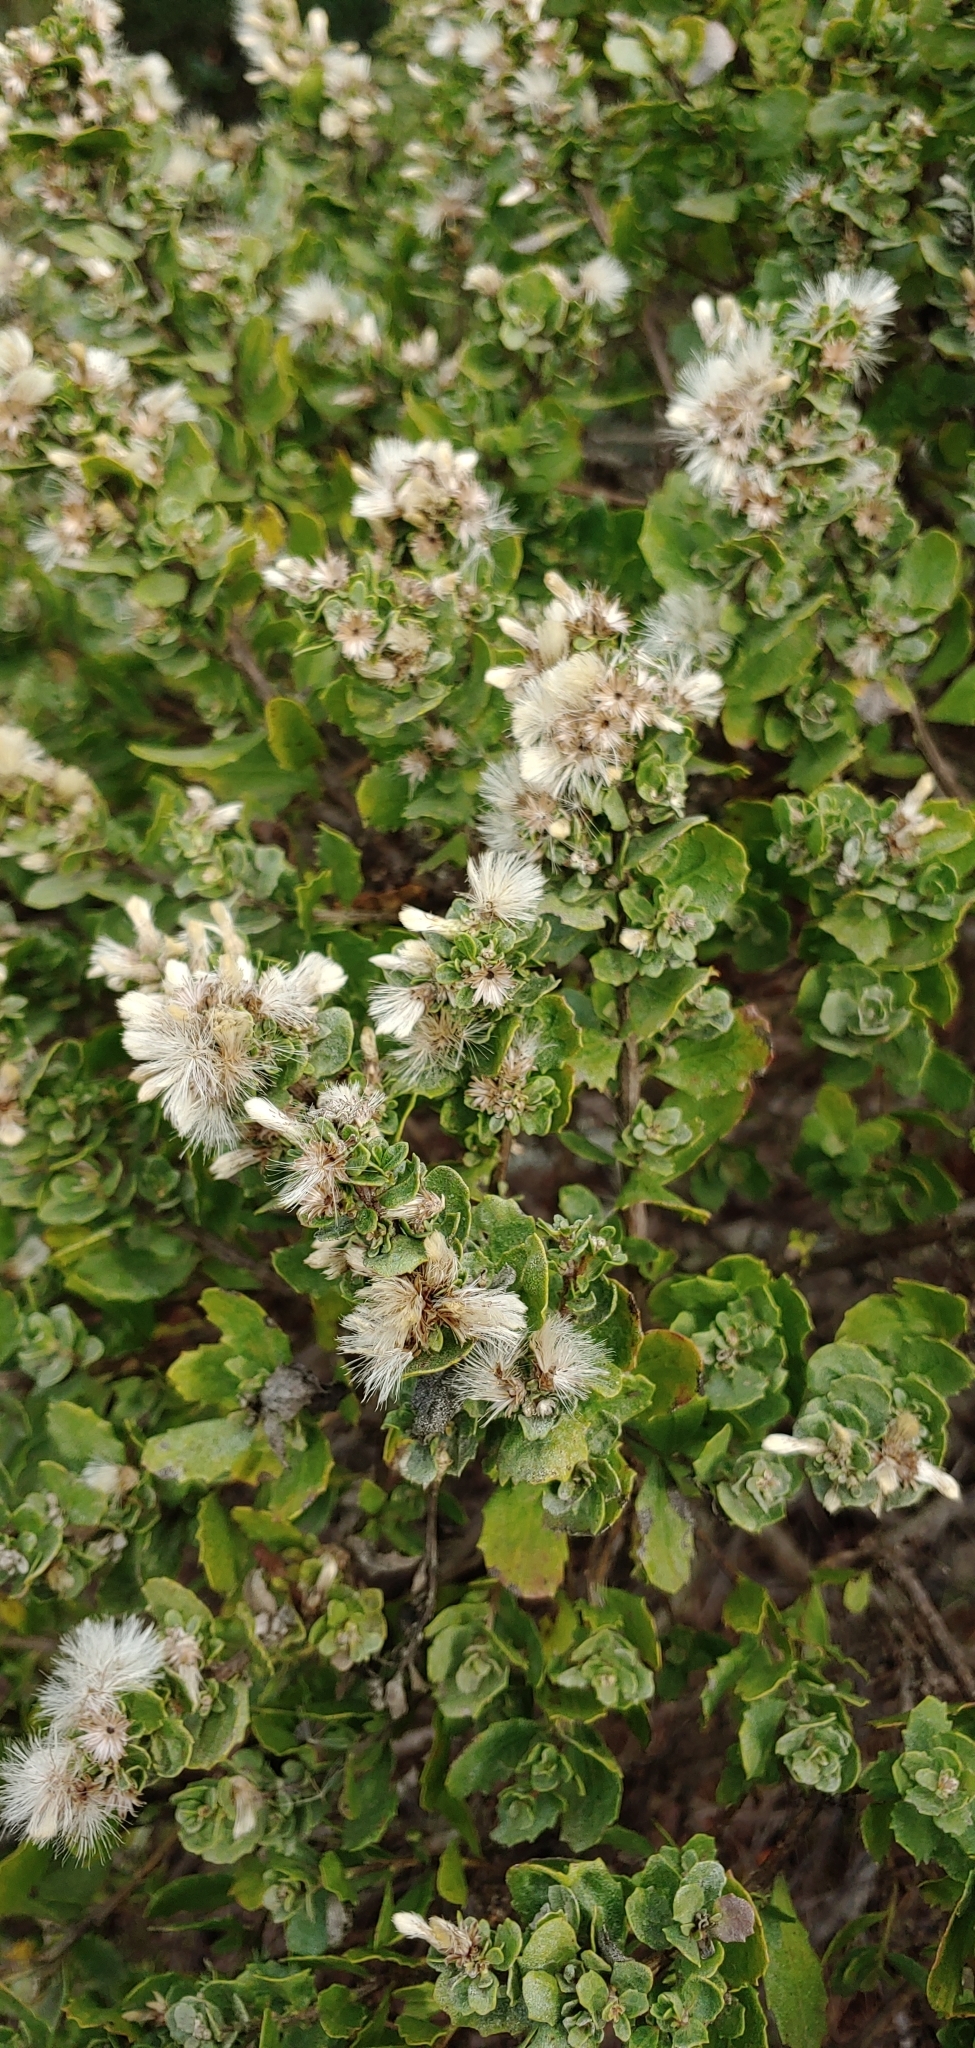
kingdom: Plantae
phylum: Tracheophyta
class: Magnoliopsida
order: Asterales
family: Asteraceae
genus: Baccharis
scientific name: Baccharis pilularis
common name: Coyotebrush
